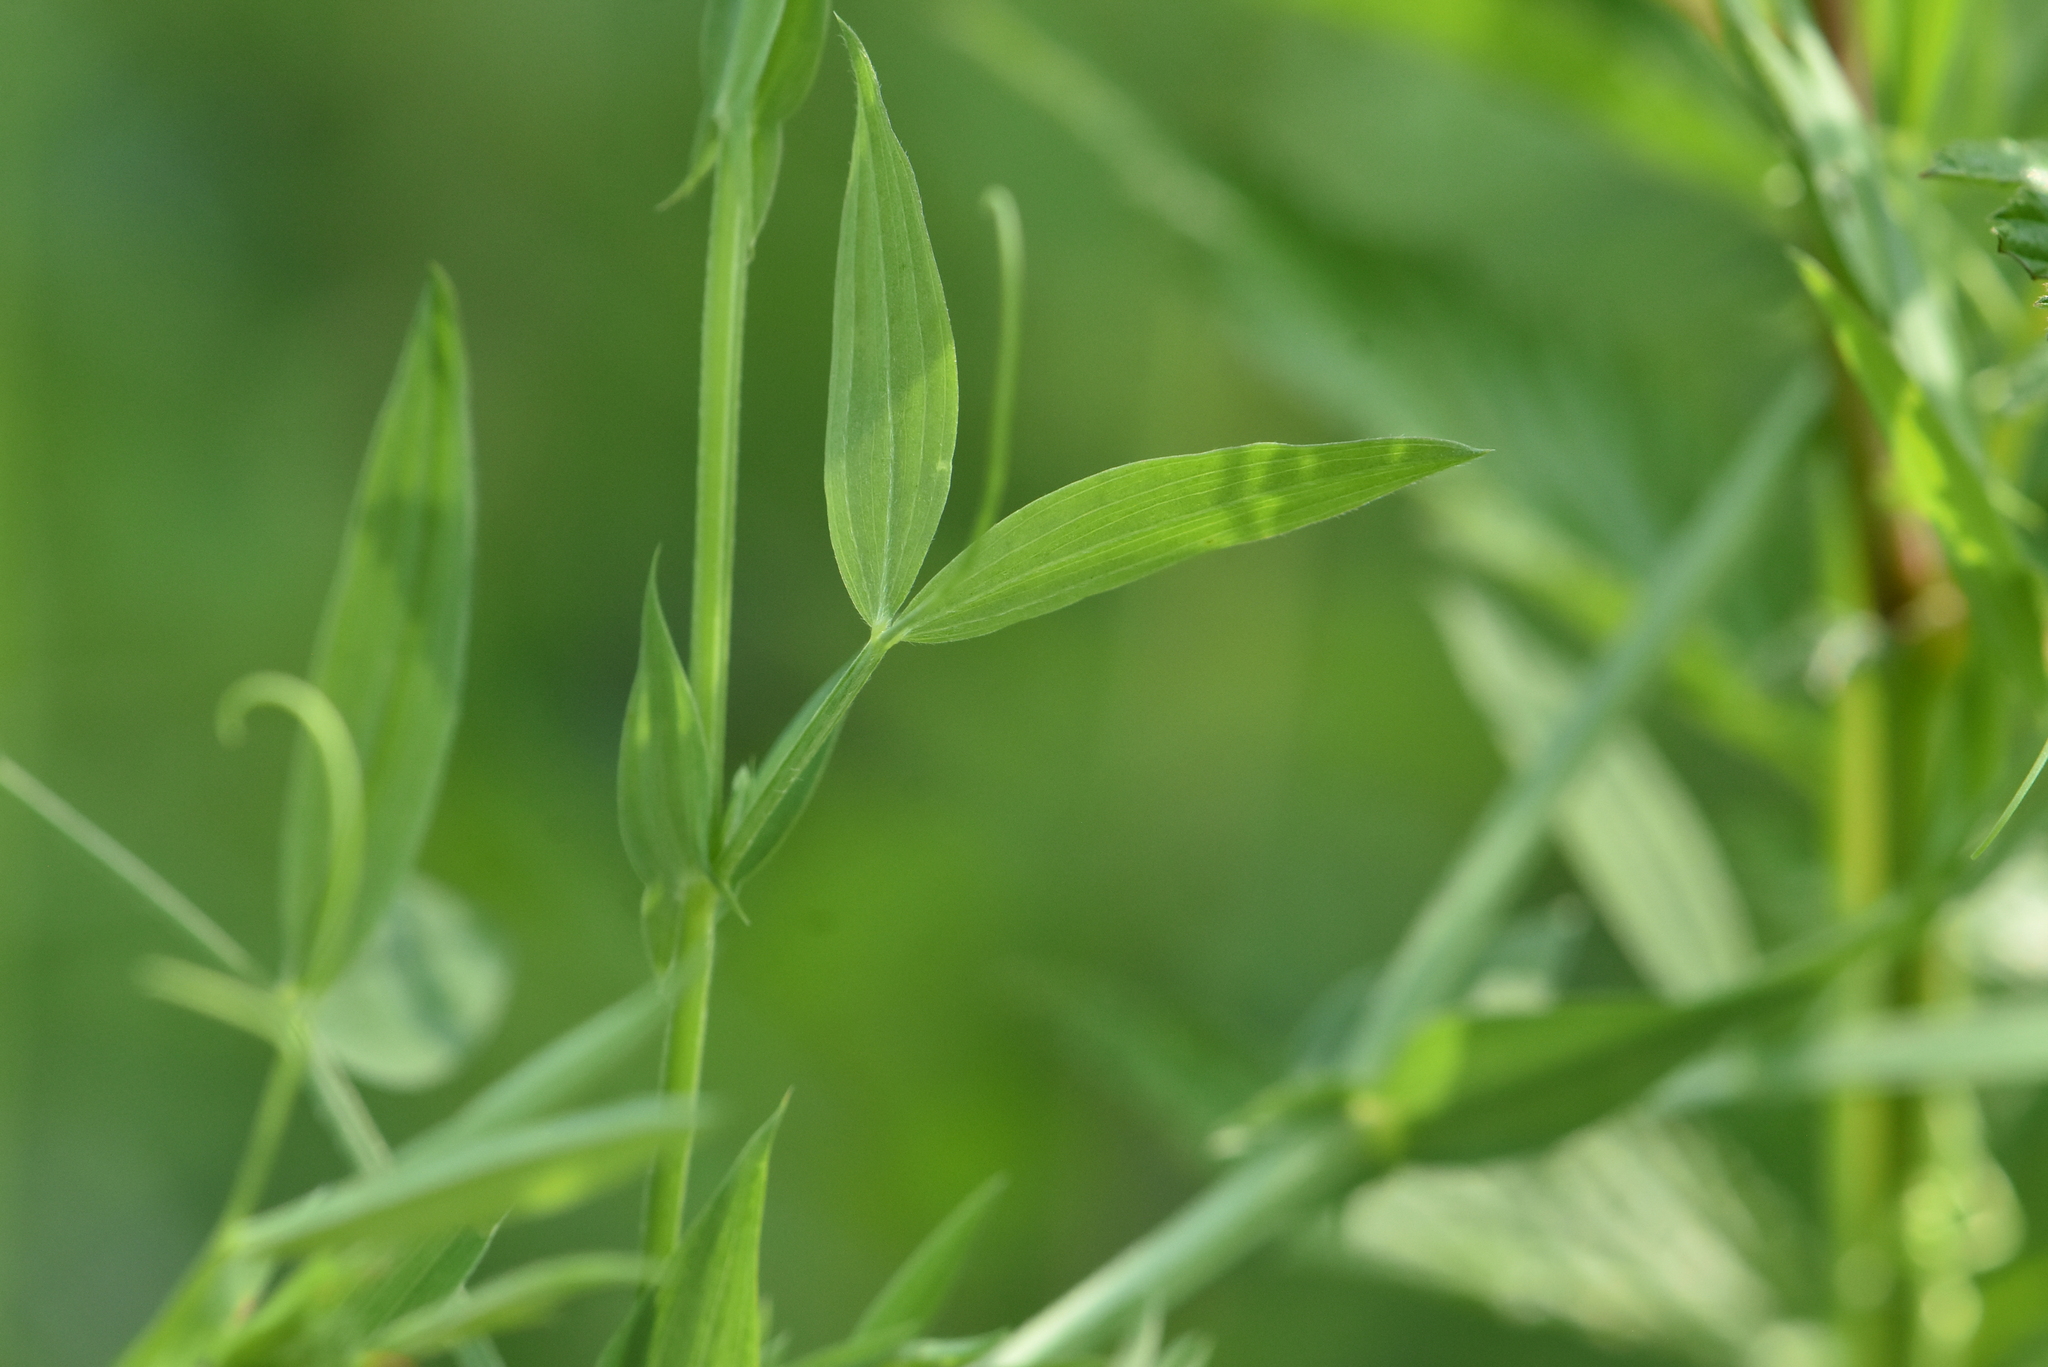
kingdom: Plantae
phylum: Tracheophyta
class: Magnoliopsida
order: Fabales
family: Fabaceae
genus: Lathyrus
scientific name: Lathyrus pratensis
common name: Meadow vetchling
